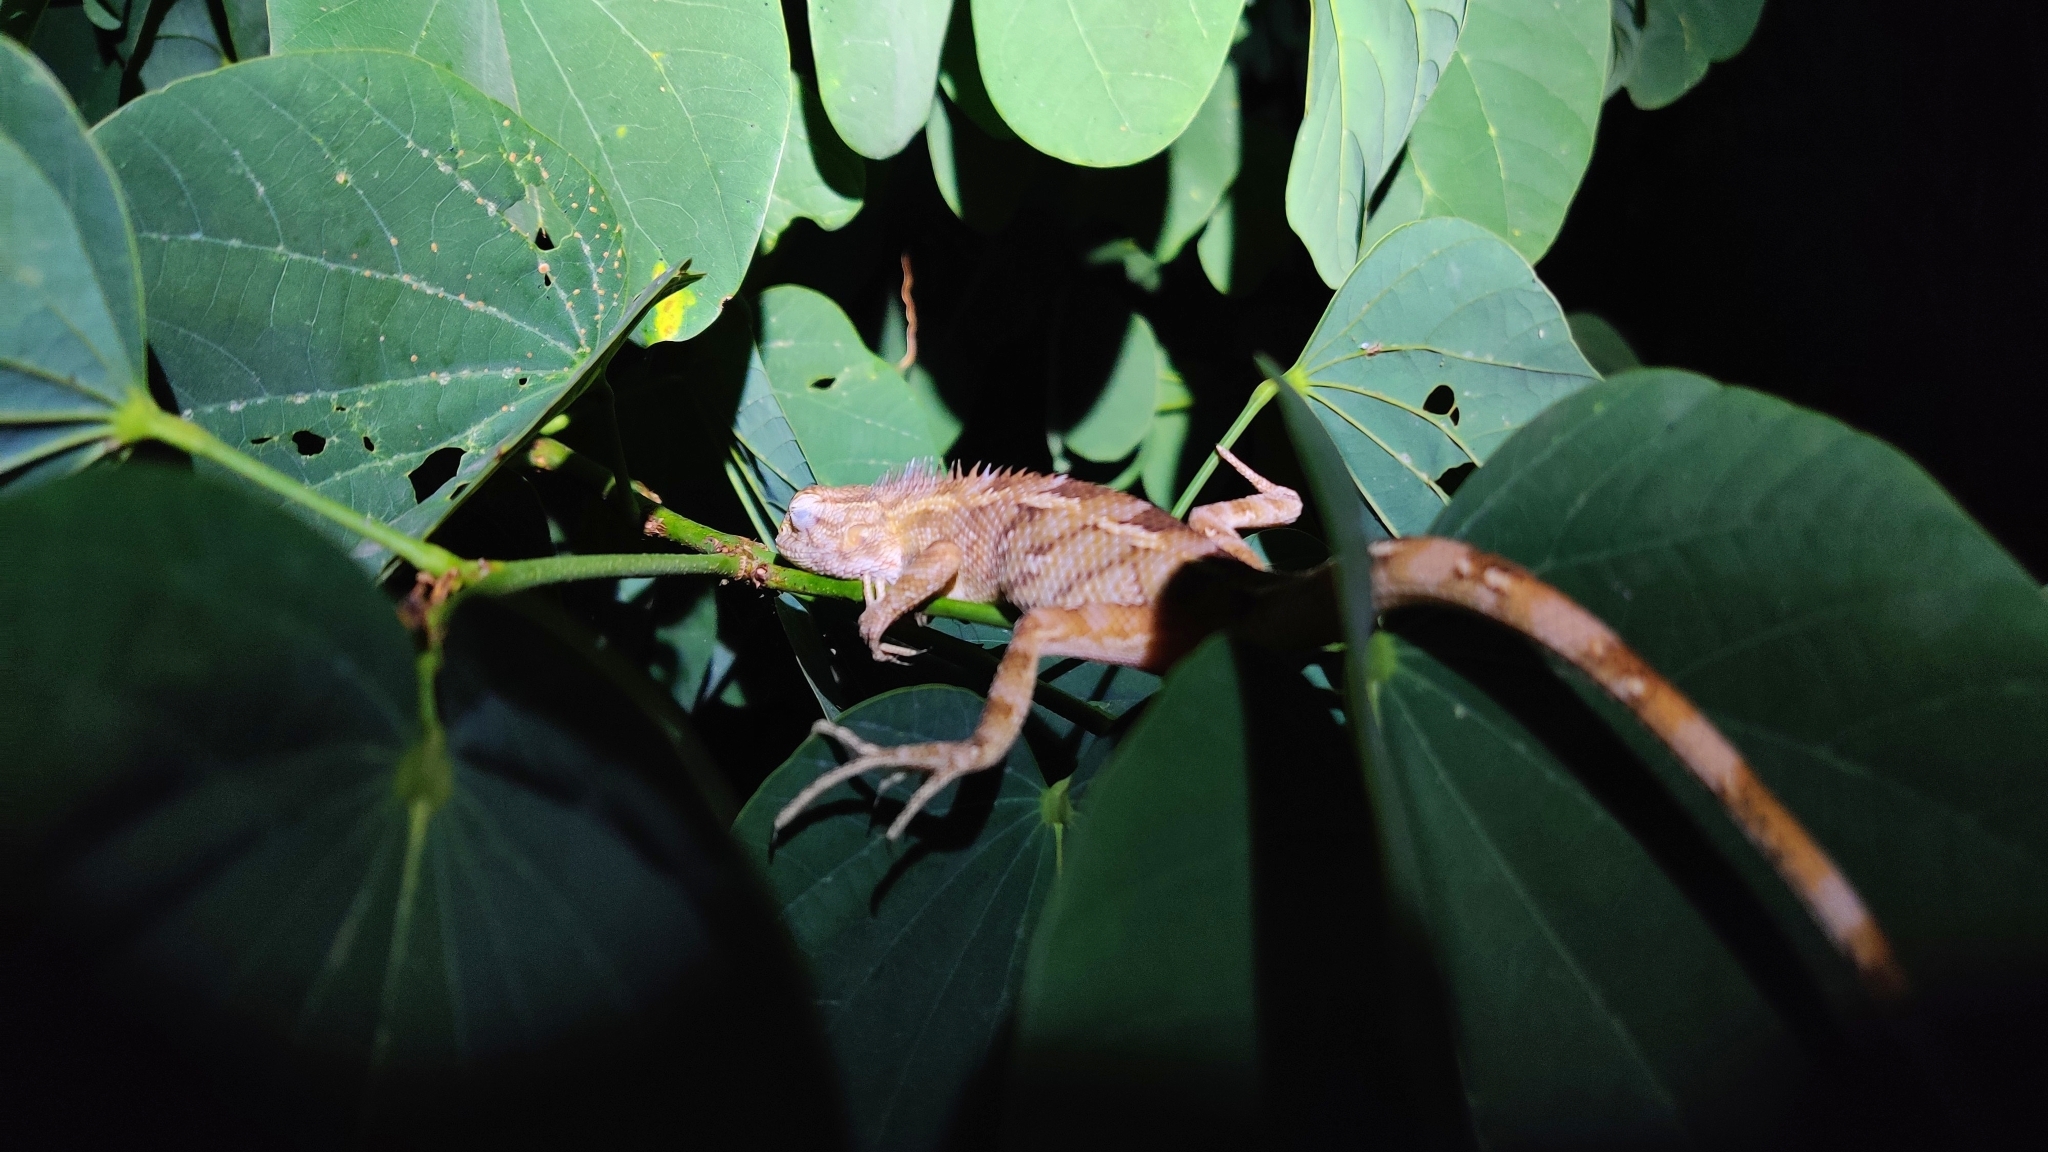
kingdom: Animalia
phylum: Chordata
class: Squamata
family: Agamidae
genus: Calotes
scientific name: Calotes versicolor
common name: Oriental garden lizard
